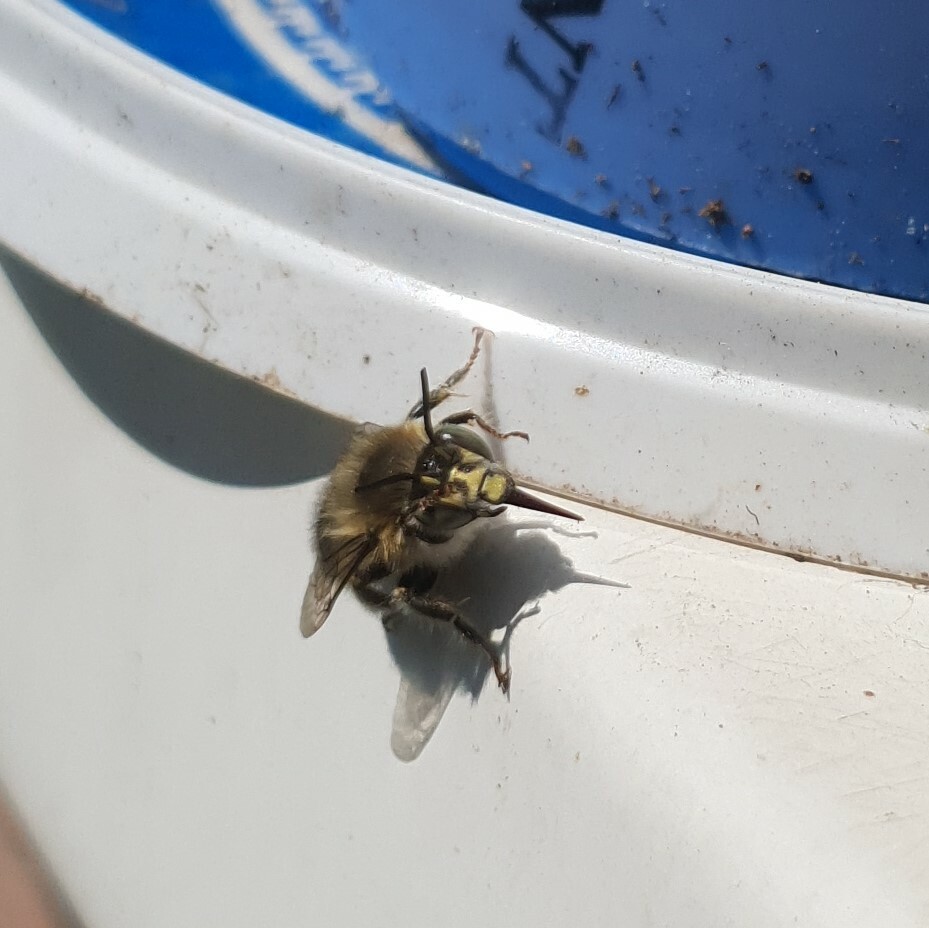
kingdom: Animalia
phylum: Arthropoda
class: Insecta
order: Hymenoptera
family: Apidae
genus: Anthophora
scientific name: Anthophora quadrimaculata
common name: Four-banded flower bee
